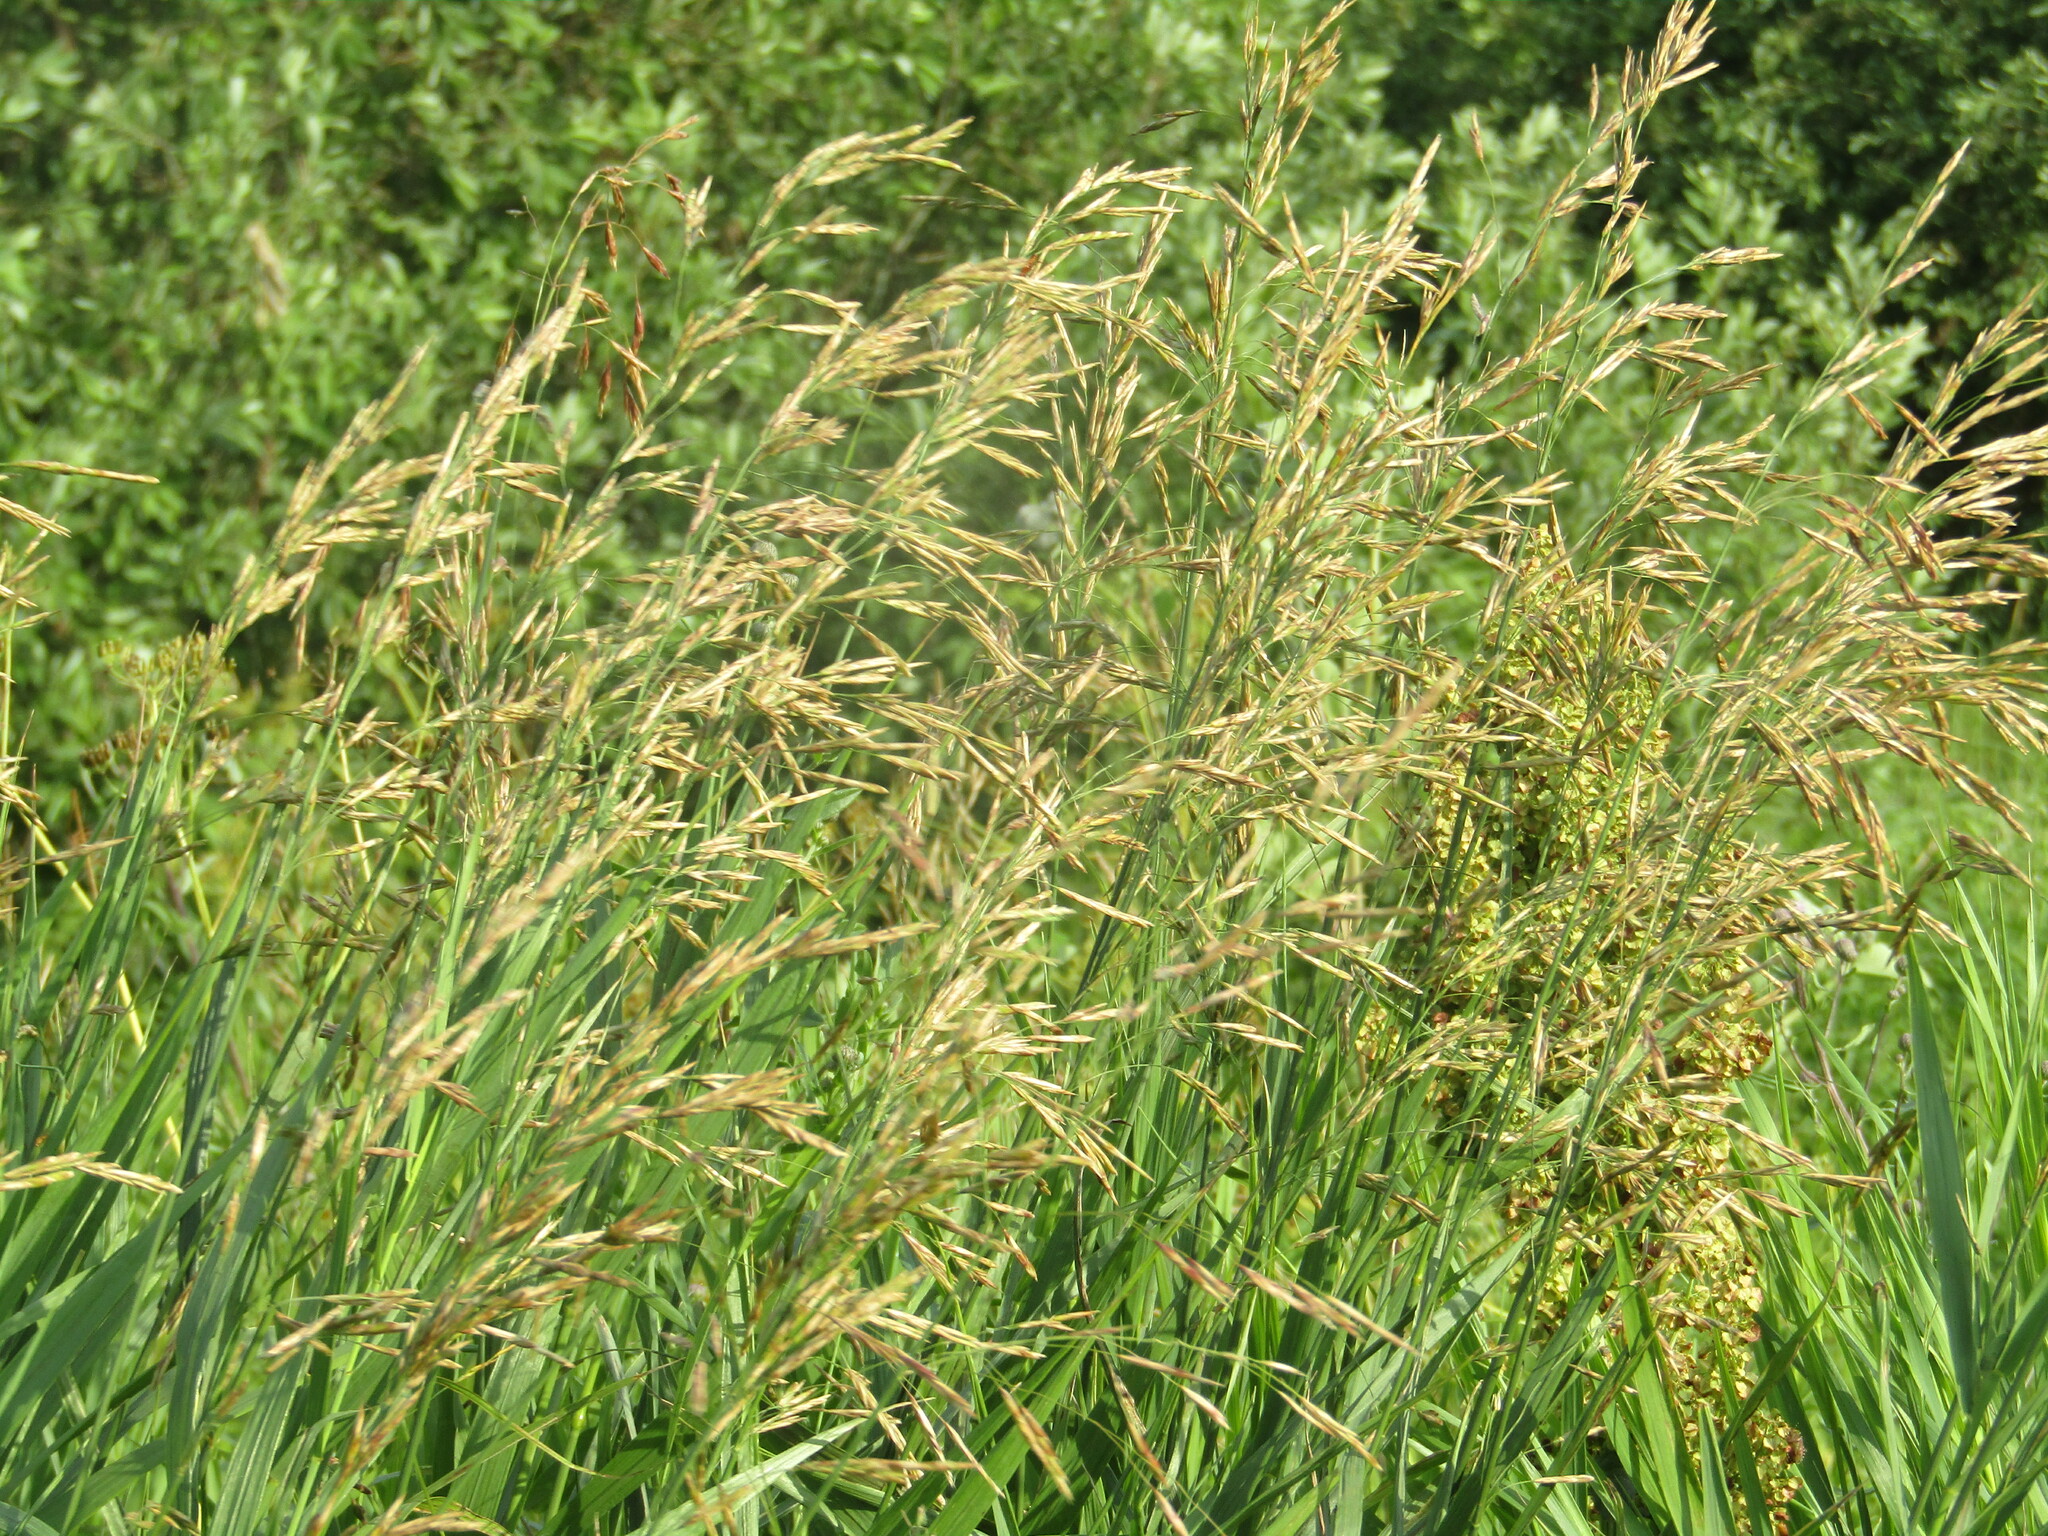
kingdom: Plantae
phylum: Tracheophyta
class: Liliopsida
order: Poales
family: Poaceae
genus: Bromus
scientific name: Bromus inermis
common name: Smooth brome
